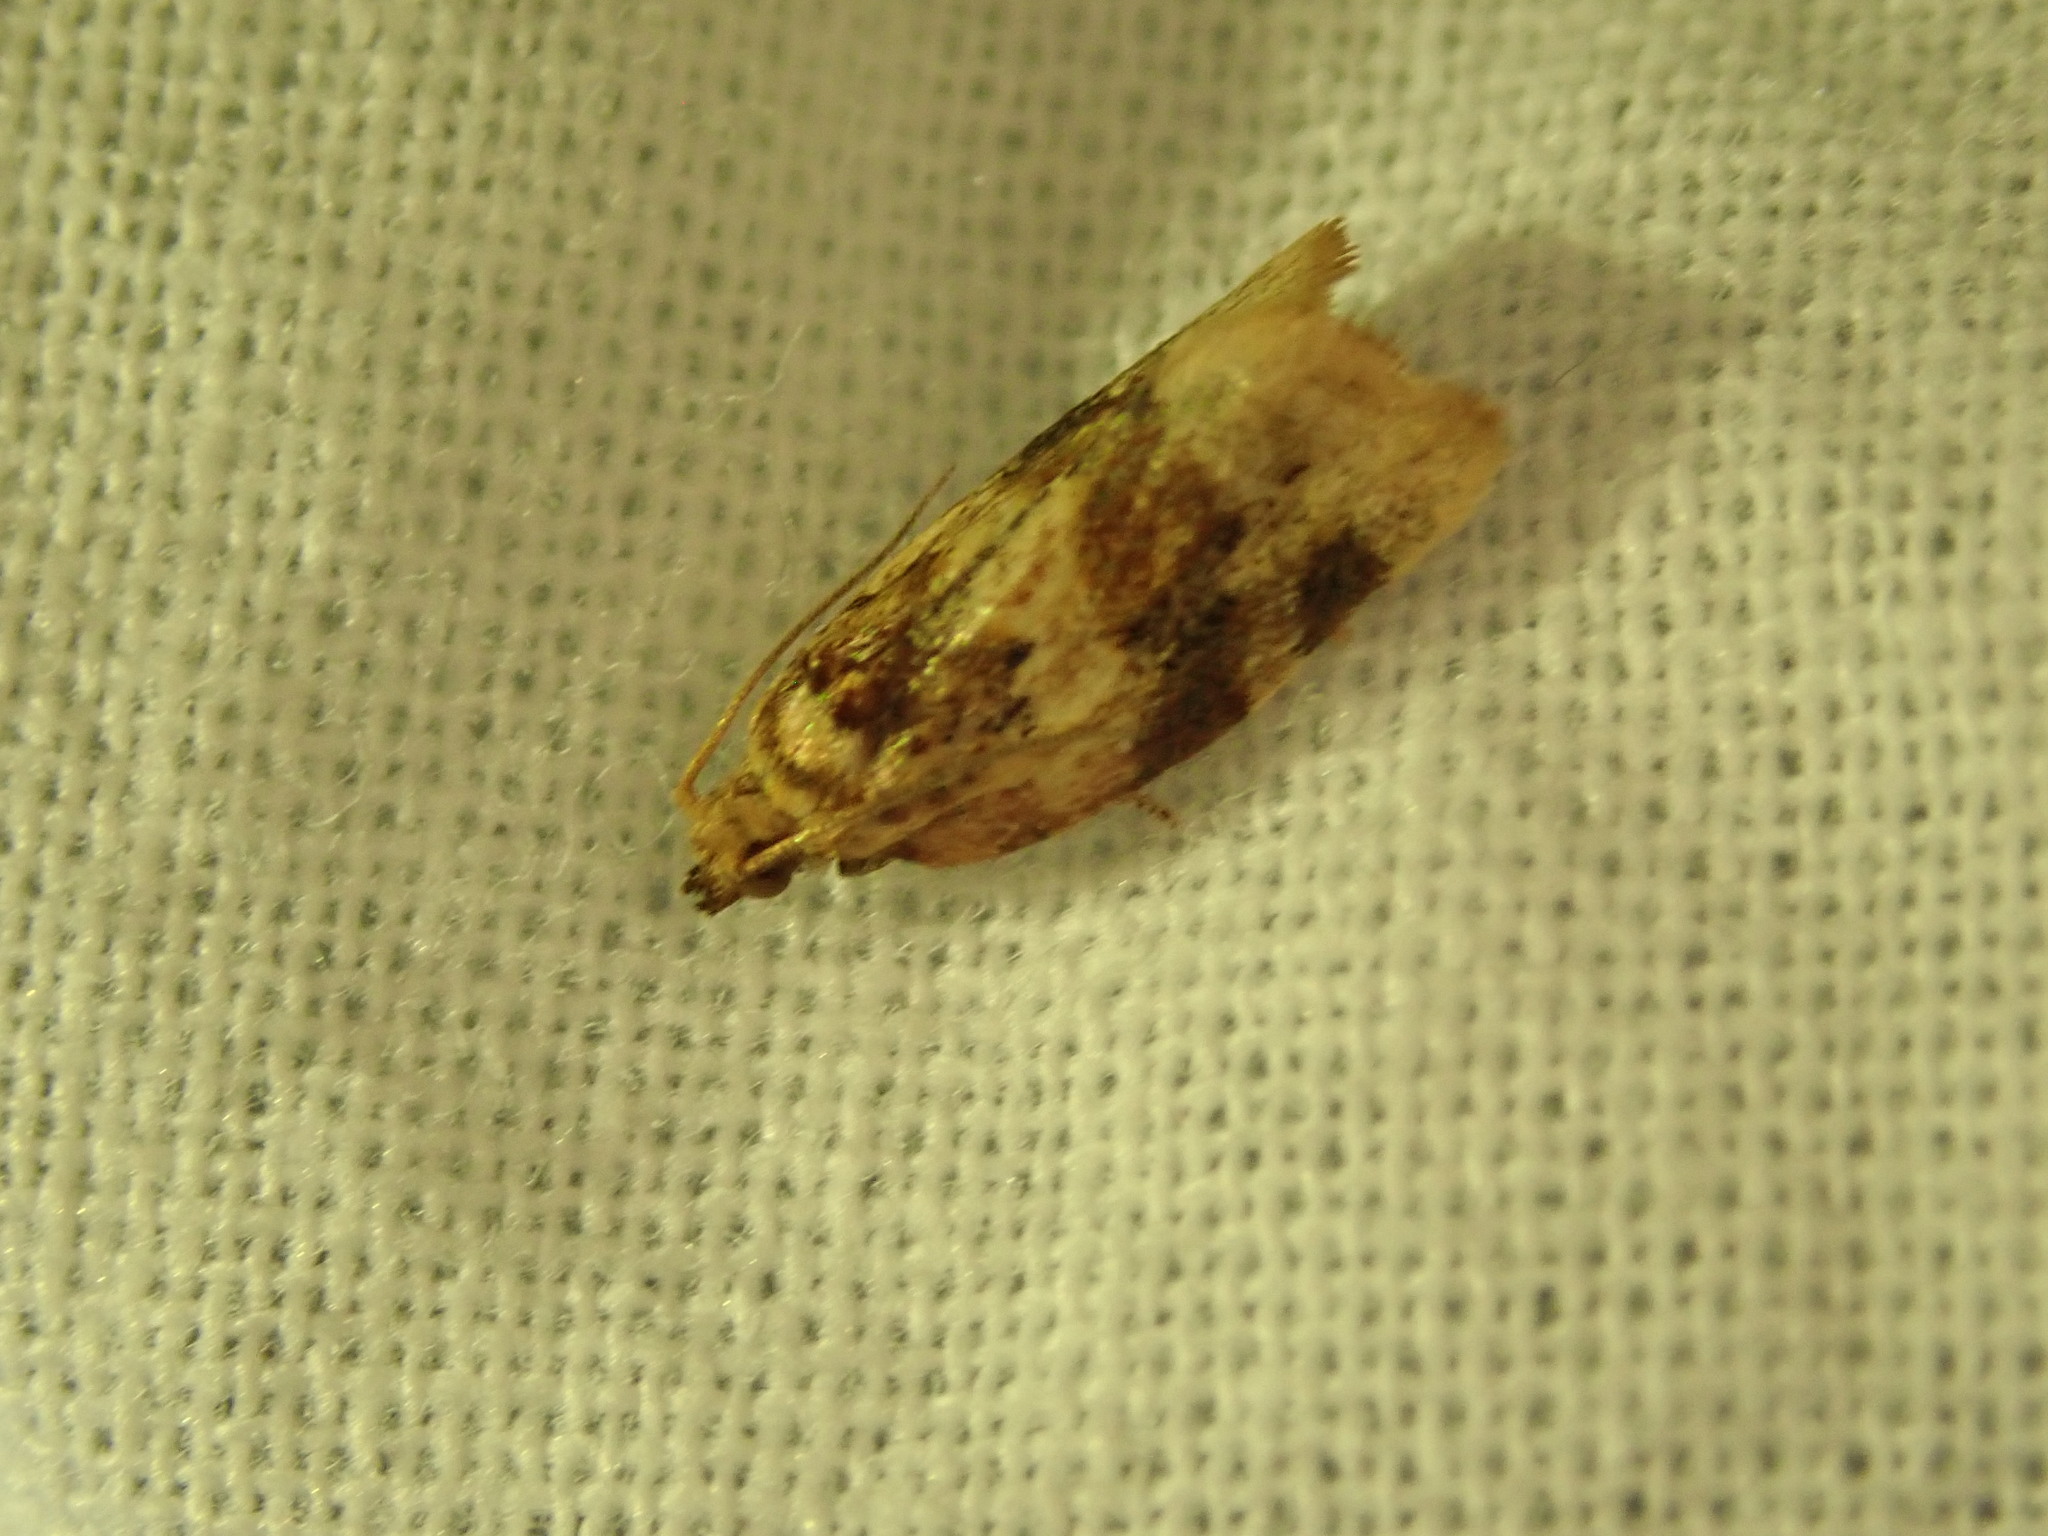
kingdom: Animalia
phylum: Arthropoda
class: Insecta
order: Lepidoptera
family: Tortricidae
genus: Argyrotaenia
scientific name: Argyrotaenia velutinana
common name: Red-banded leafroller moth
